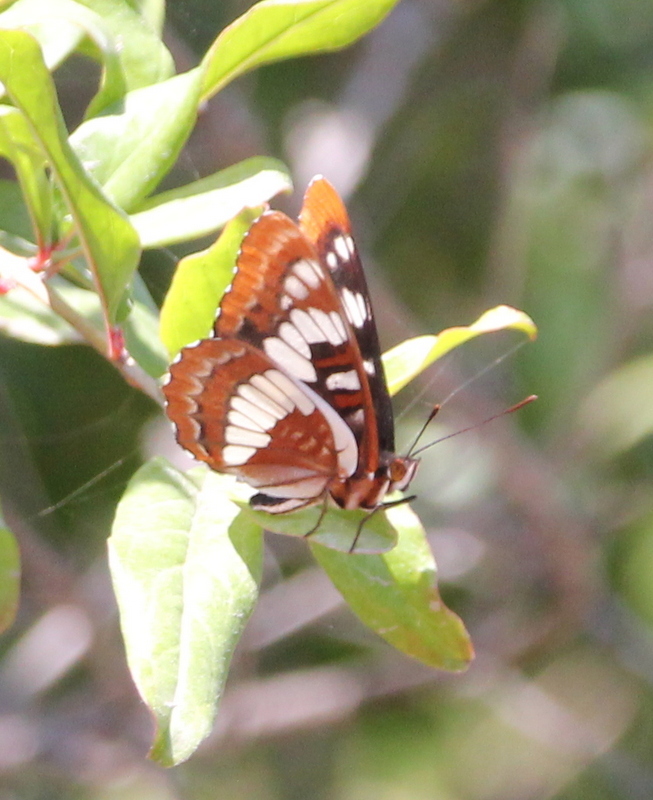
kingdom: Animalia
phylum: Arthropoda
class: Insecta
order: Lepidoptera
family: Nymphalidae
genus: Limenitis
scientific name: Limenitis lorquini
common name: Lorquin's admiral
